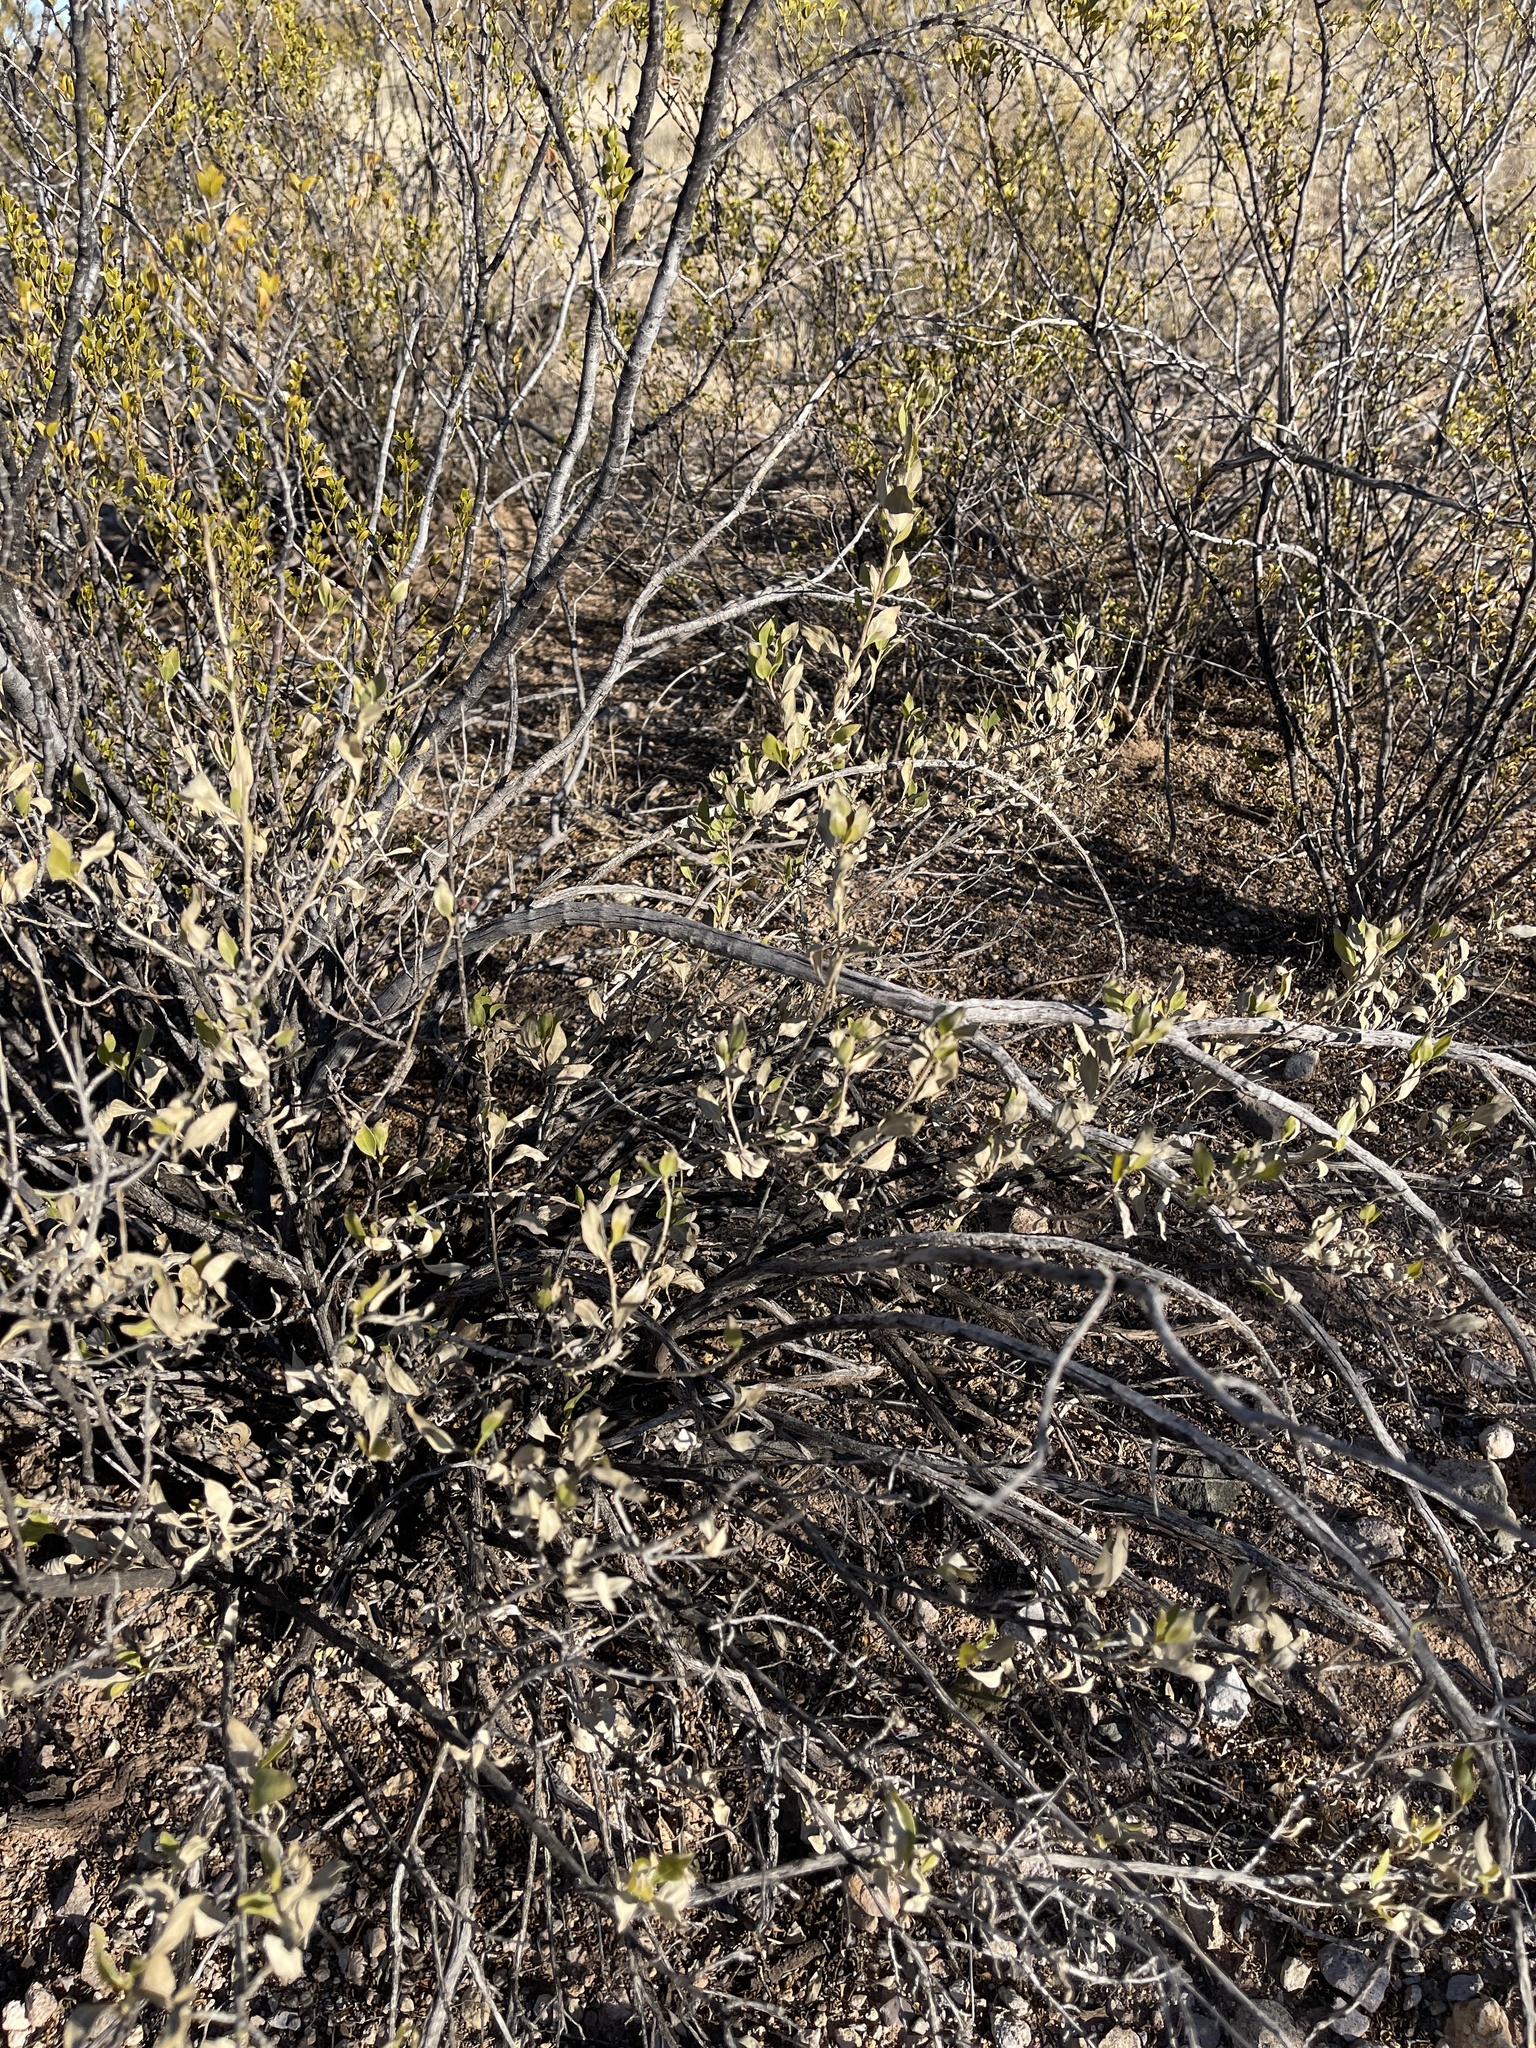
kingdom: Plantae
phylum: Tracheophyta
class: Magnoliopsida
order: Asterales
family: Asteraceae
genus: Flourensia
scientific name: Flourensia cernua
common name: Varnishbush
